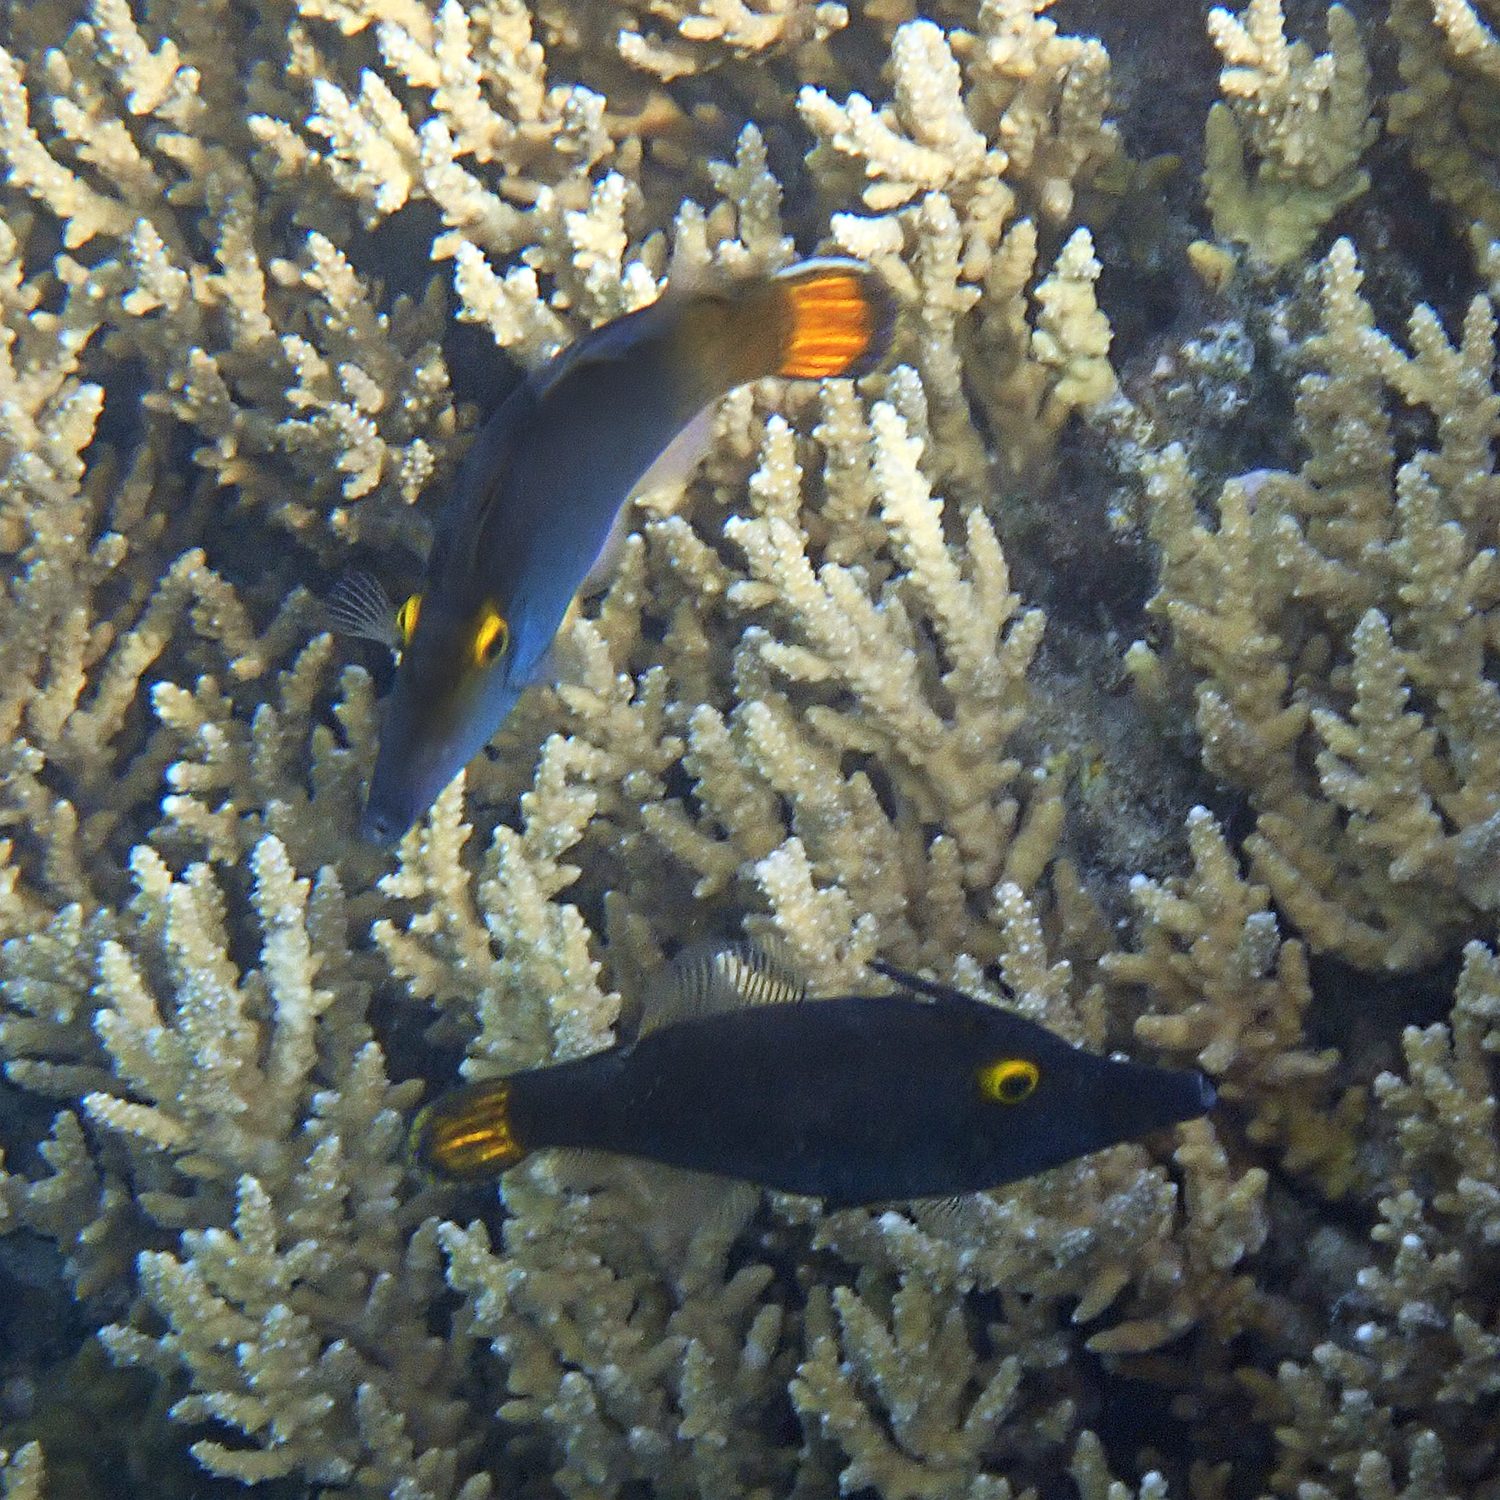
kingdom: Animalia
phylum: Chordata
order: Tetraodontiformes
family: Monacanthidae
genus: Pervagor
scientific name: Pervagor alternans
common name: Yelloweye filefish
